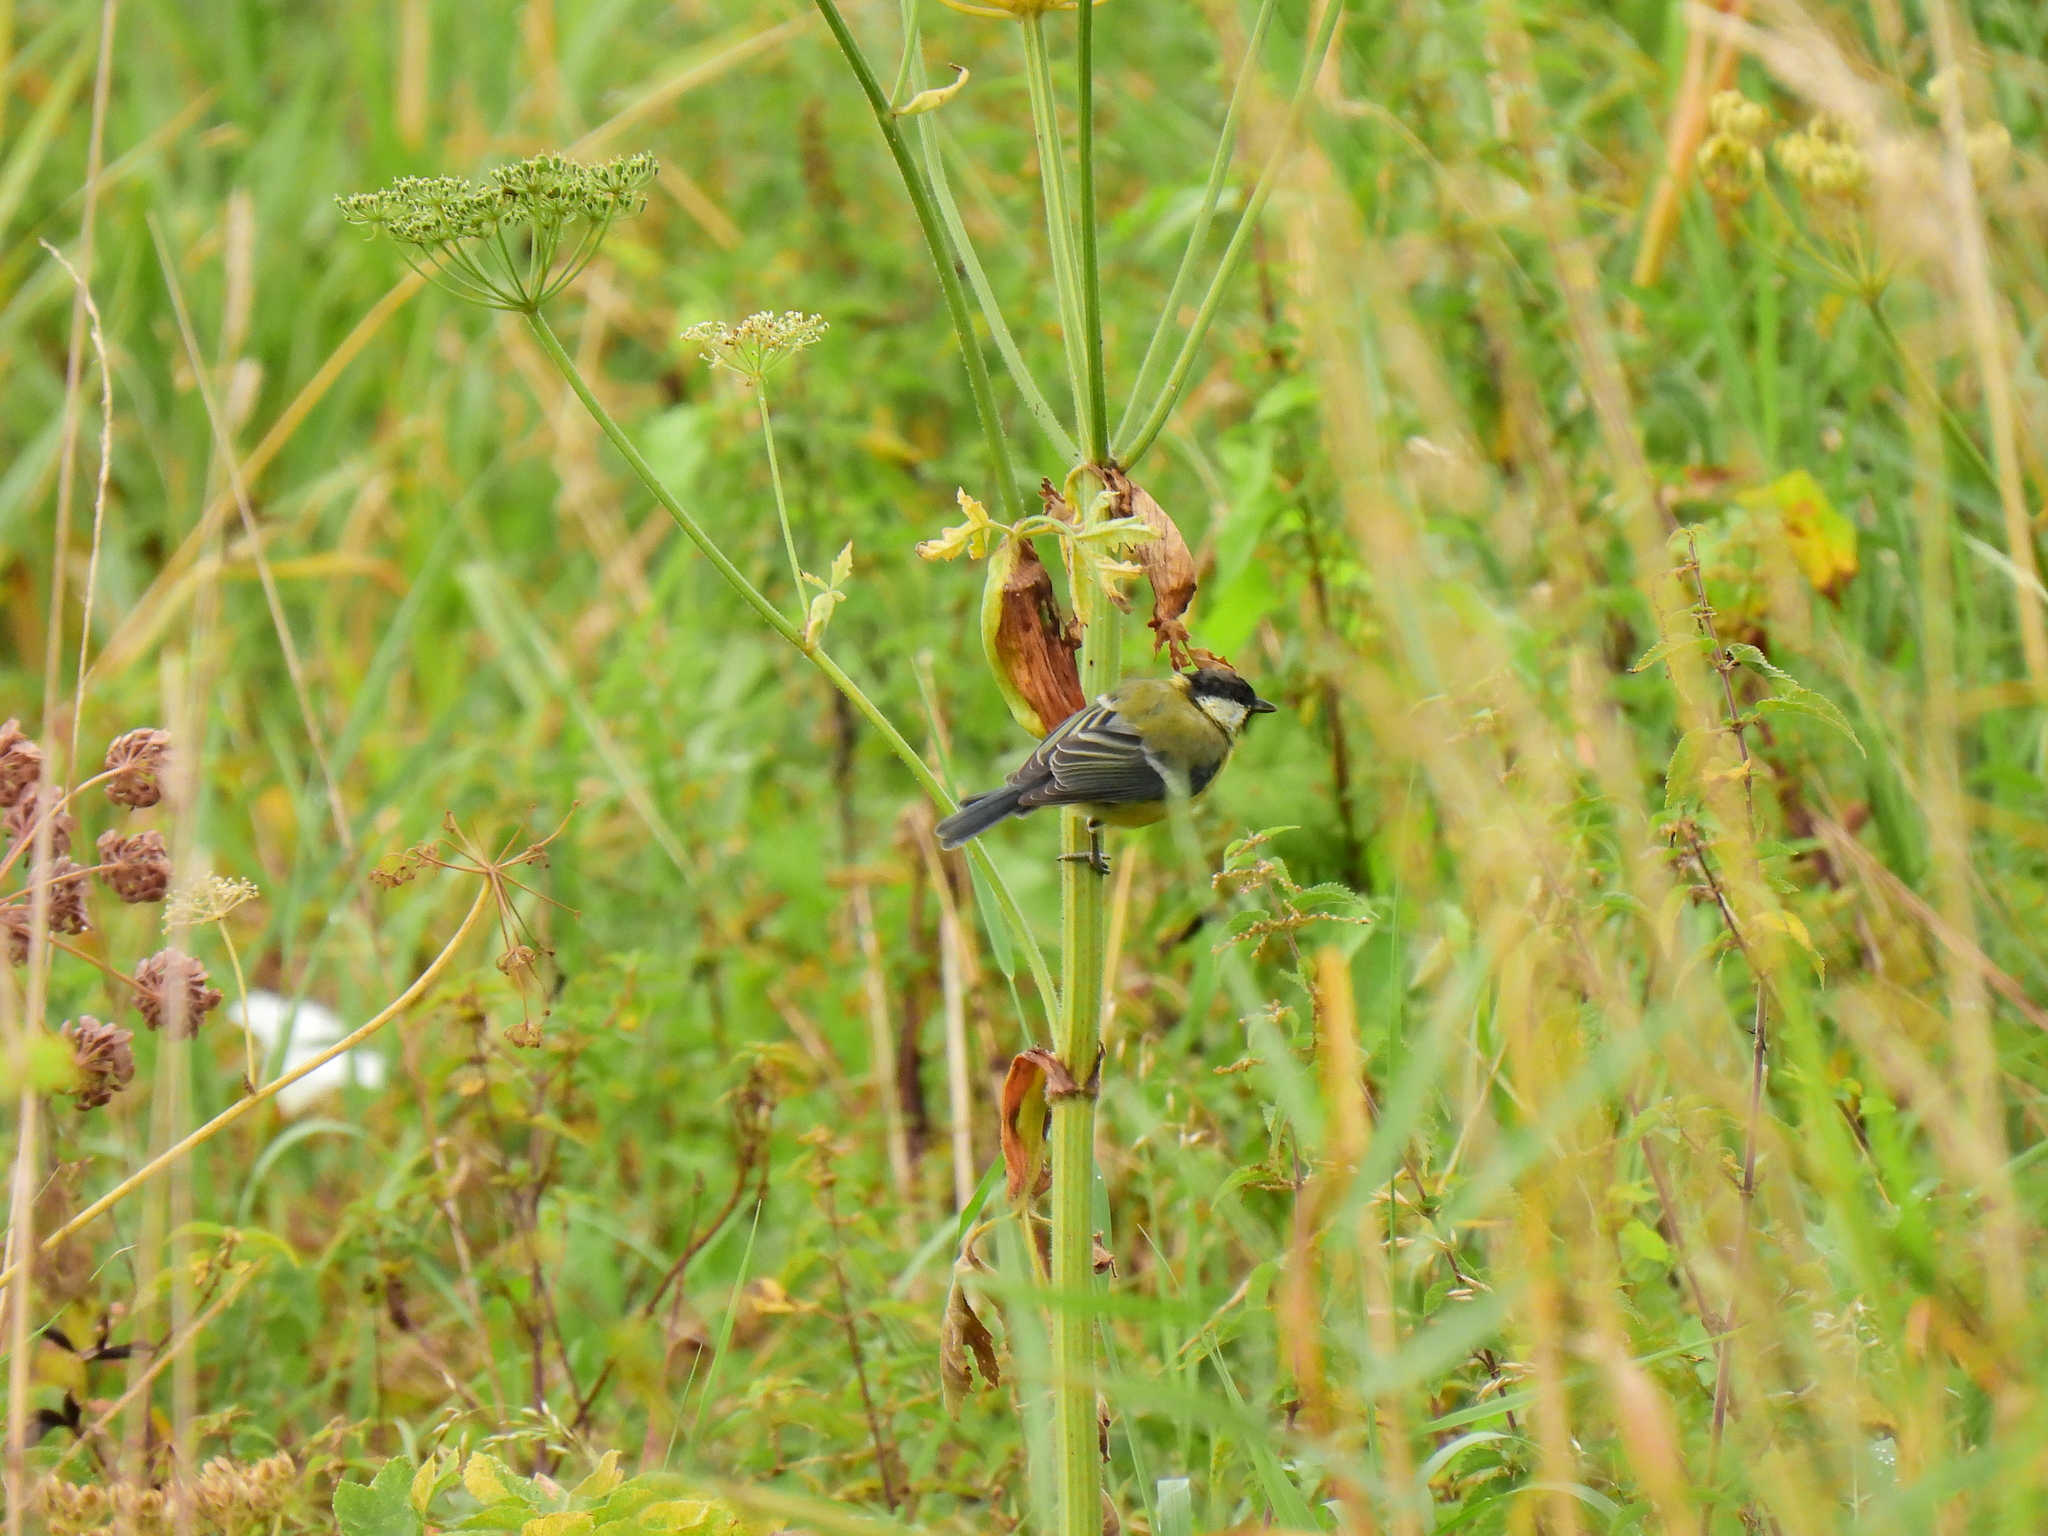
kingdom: Animalia
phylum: Chordata
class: Aves
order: Passeriformes
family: Paridae
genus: Parus
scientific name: Parus major
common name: Great tit
